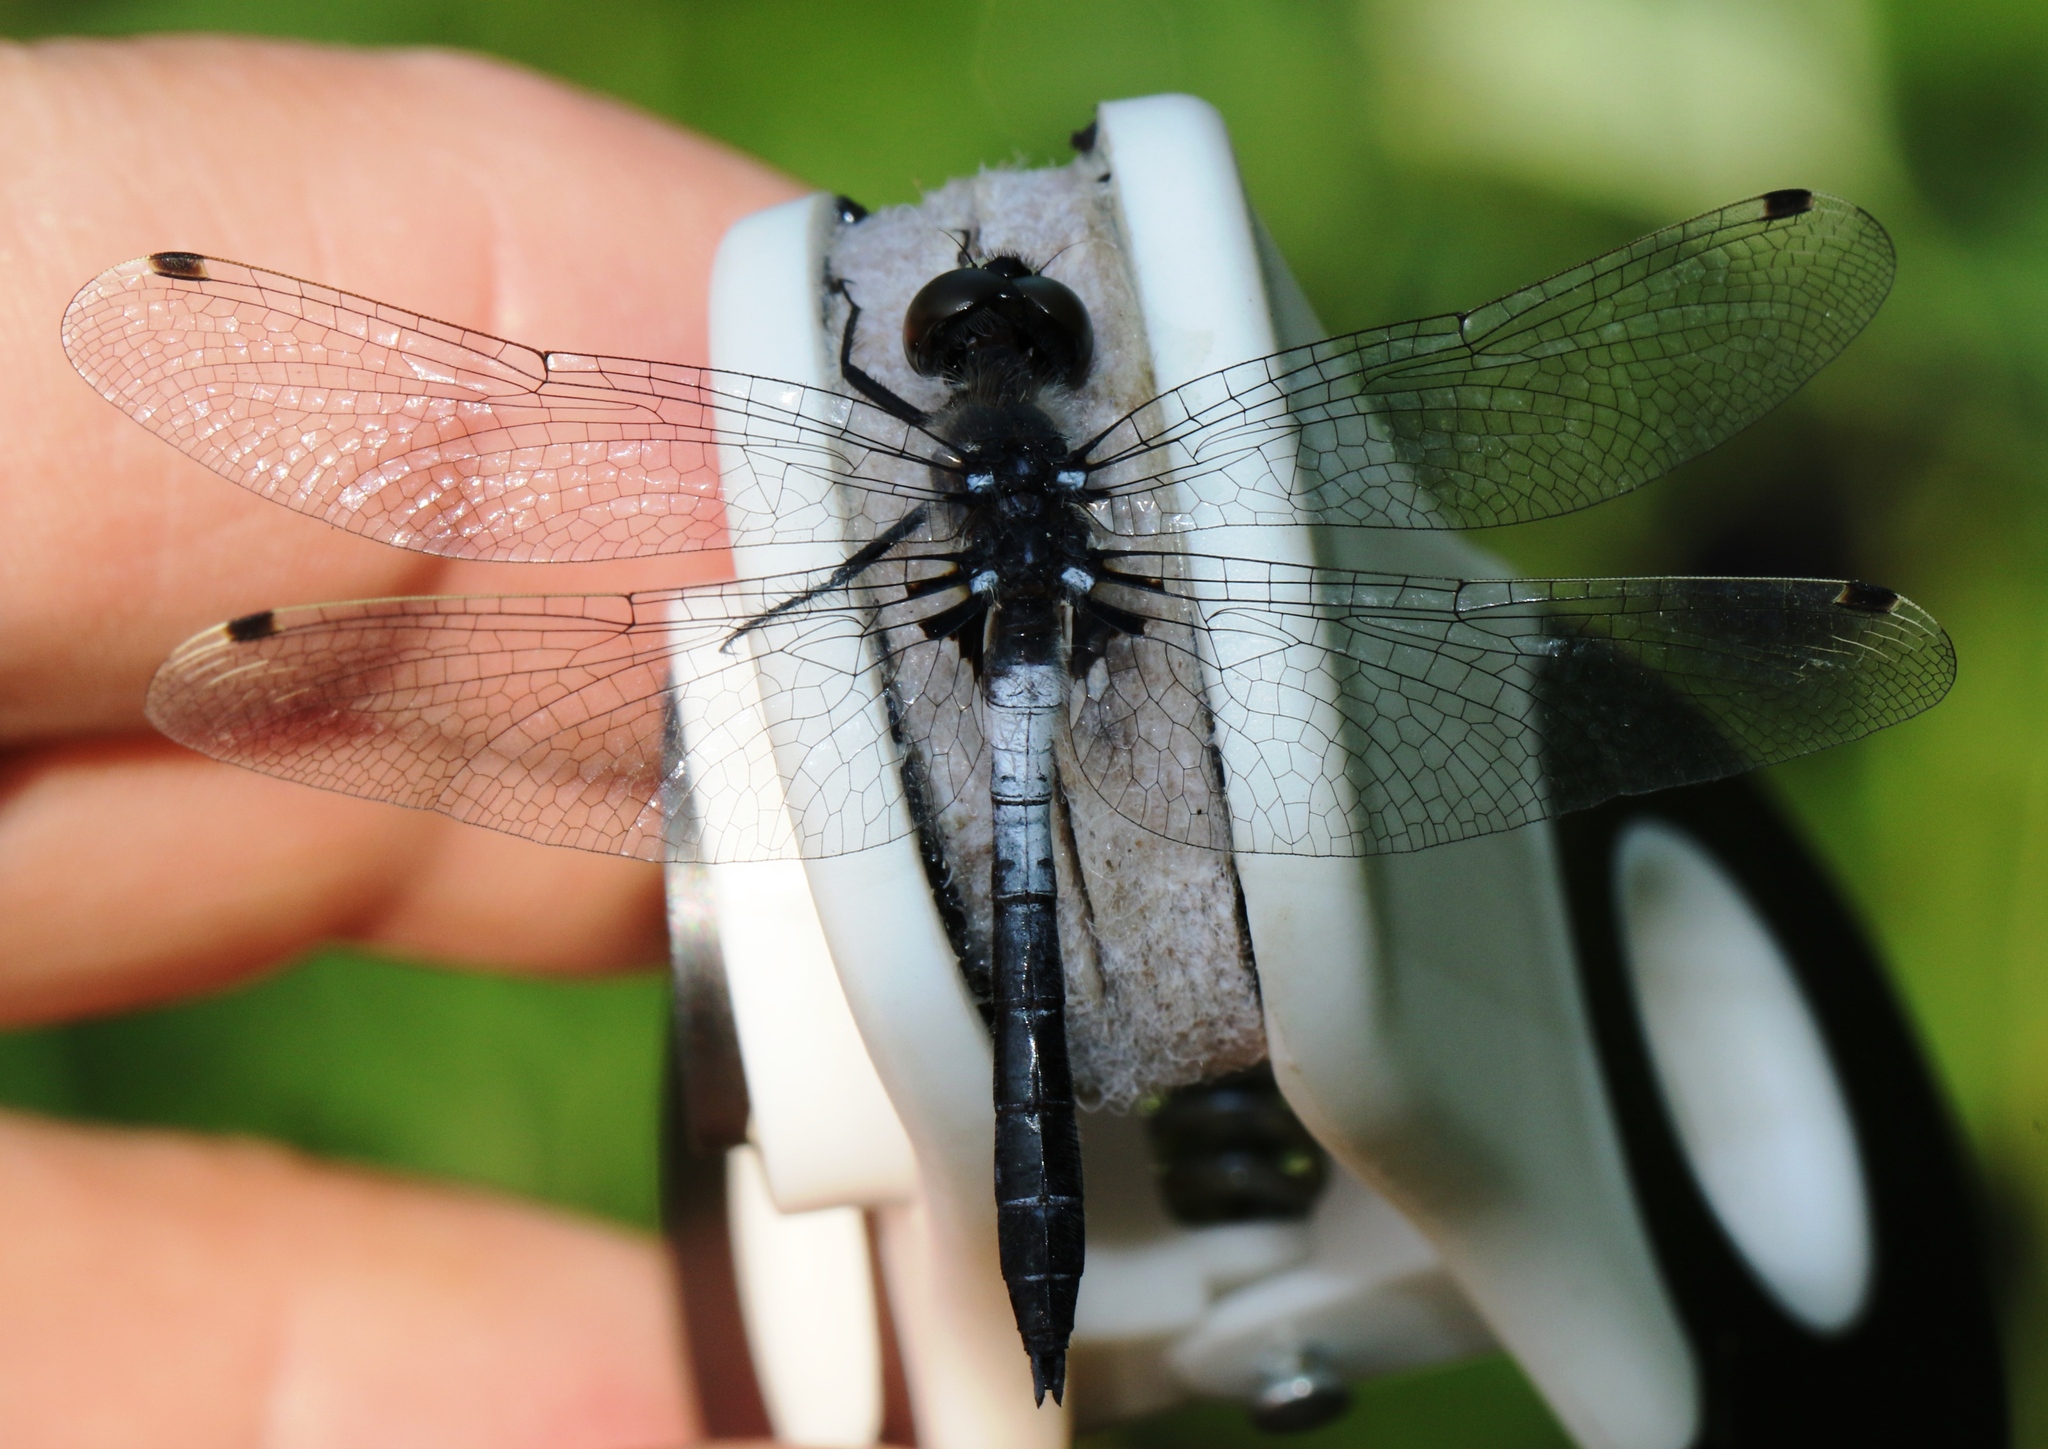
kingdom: Animalia
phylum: Arthropoda
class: Insecta
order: Odonata
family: Libellulidae
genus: Leucorrhinia
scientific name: Leucorrhinia frigida
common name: Frosted whiteface
